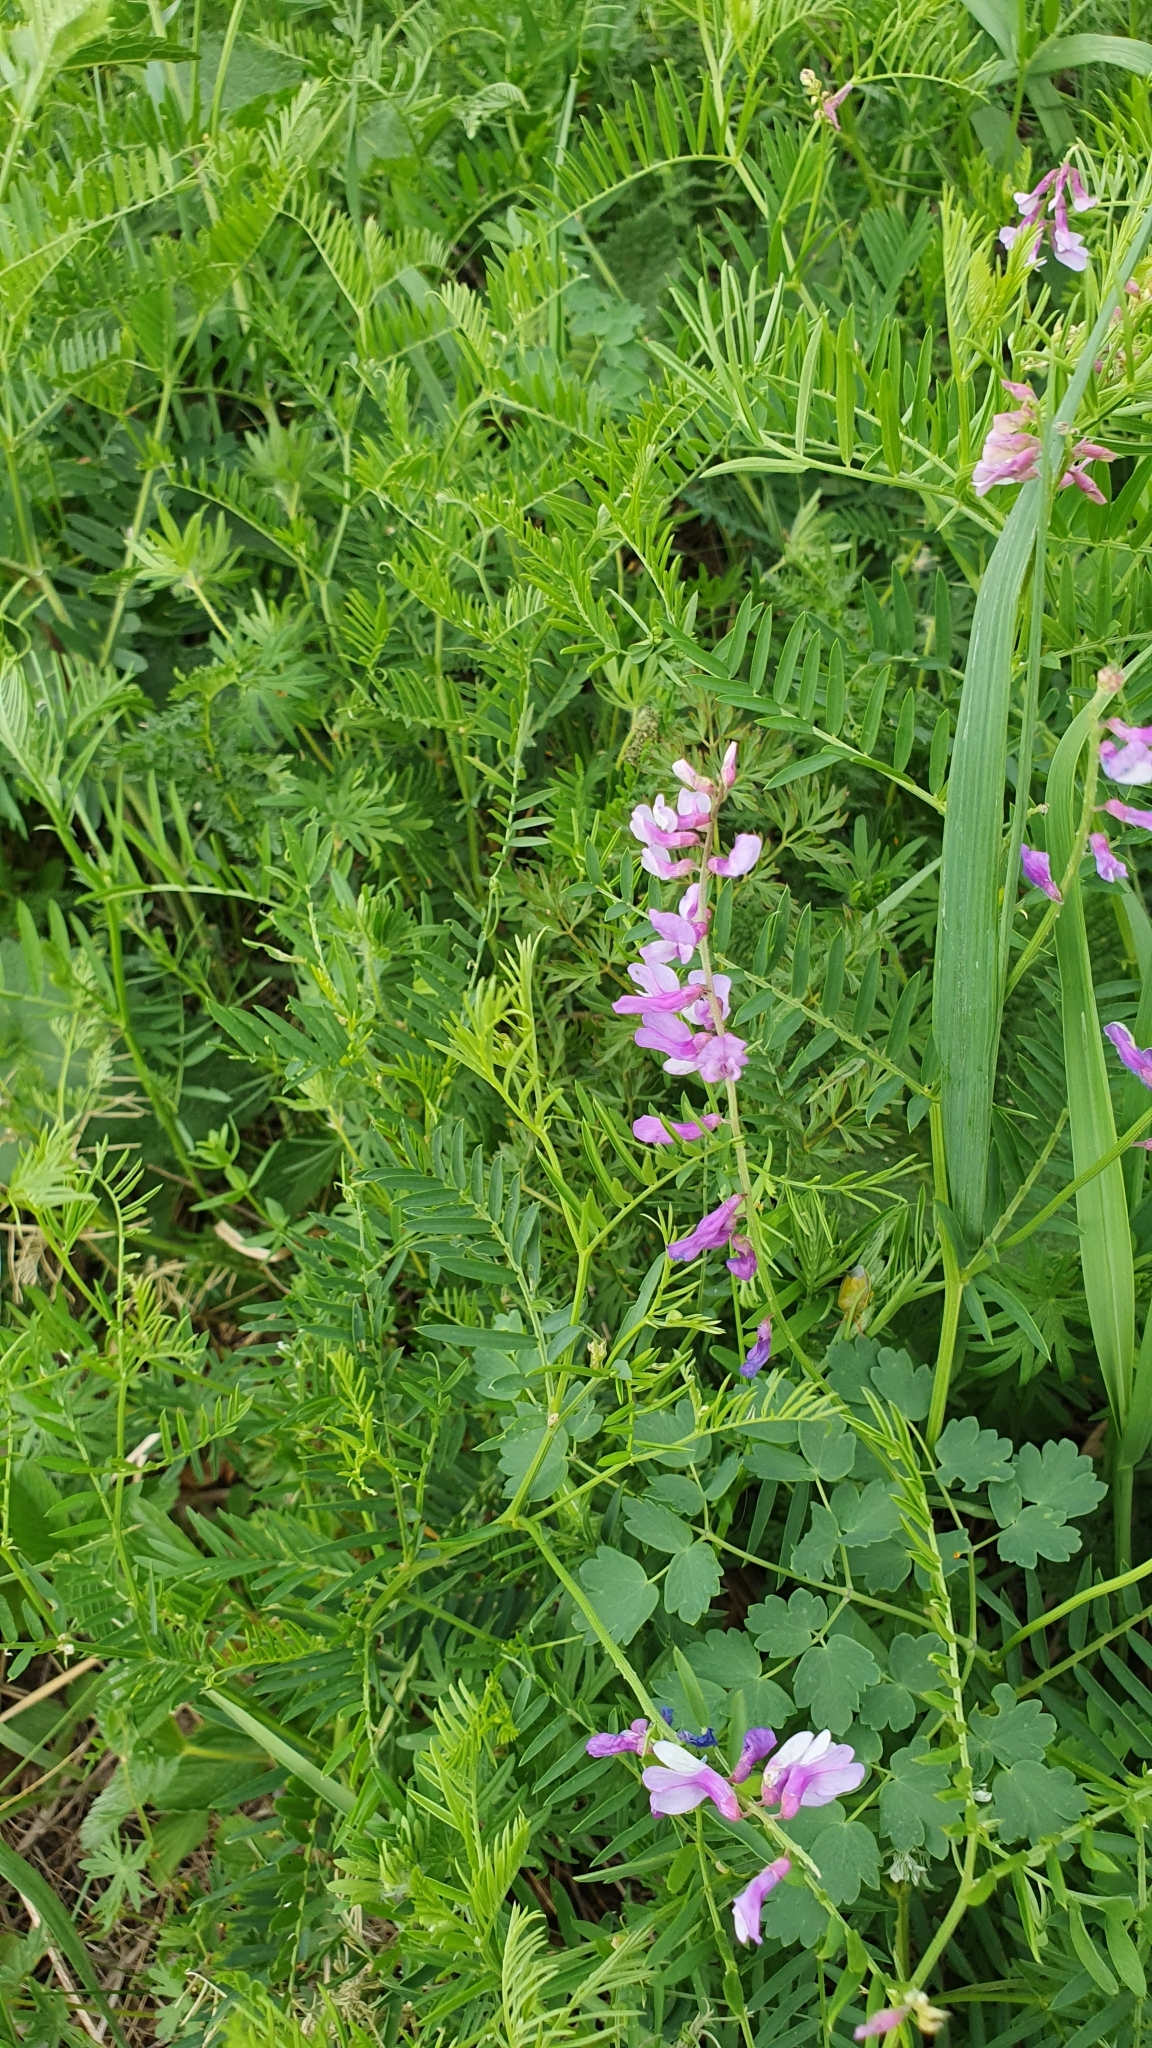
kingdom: Plantae
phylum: Tracheophyta
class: Magnoliopsida
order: Fabales
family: Fabaceae
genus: Vicia
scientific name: Vicia tenuifolia
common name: Fine-leaved vetch
